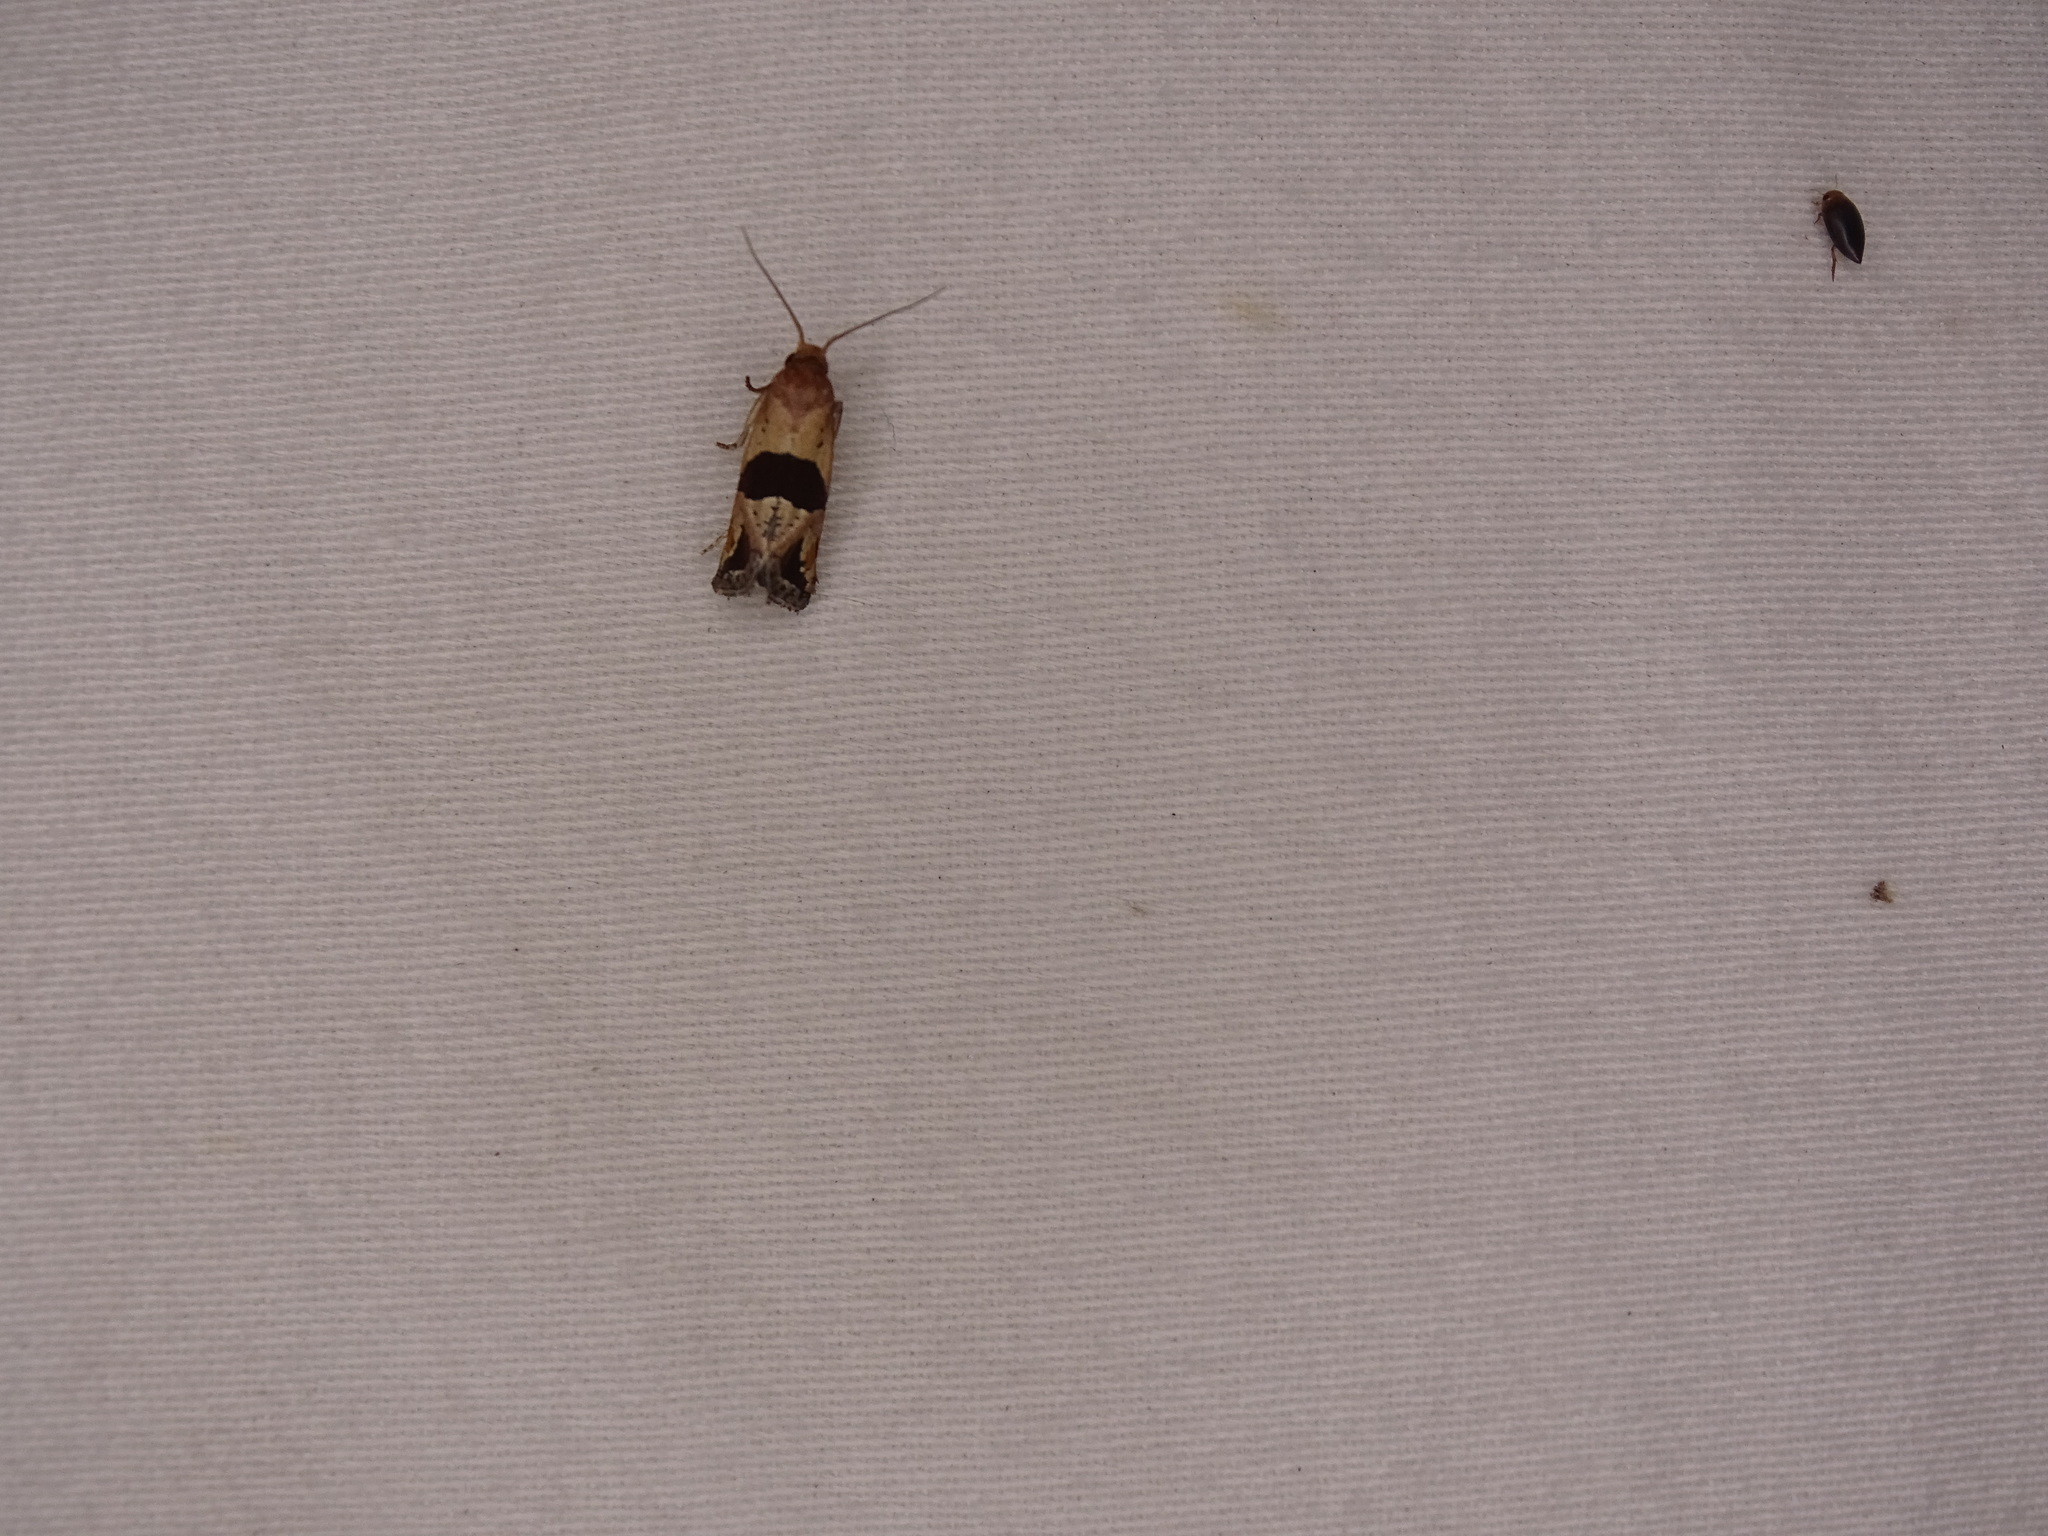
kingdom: Animalia
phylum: Arthropoda
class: Insecta
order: Lepidoptera
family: Tortricidae
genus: Eugnosta
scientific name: Eugnosta sartana
